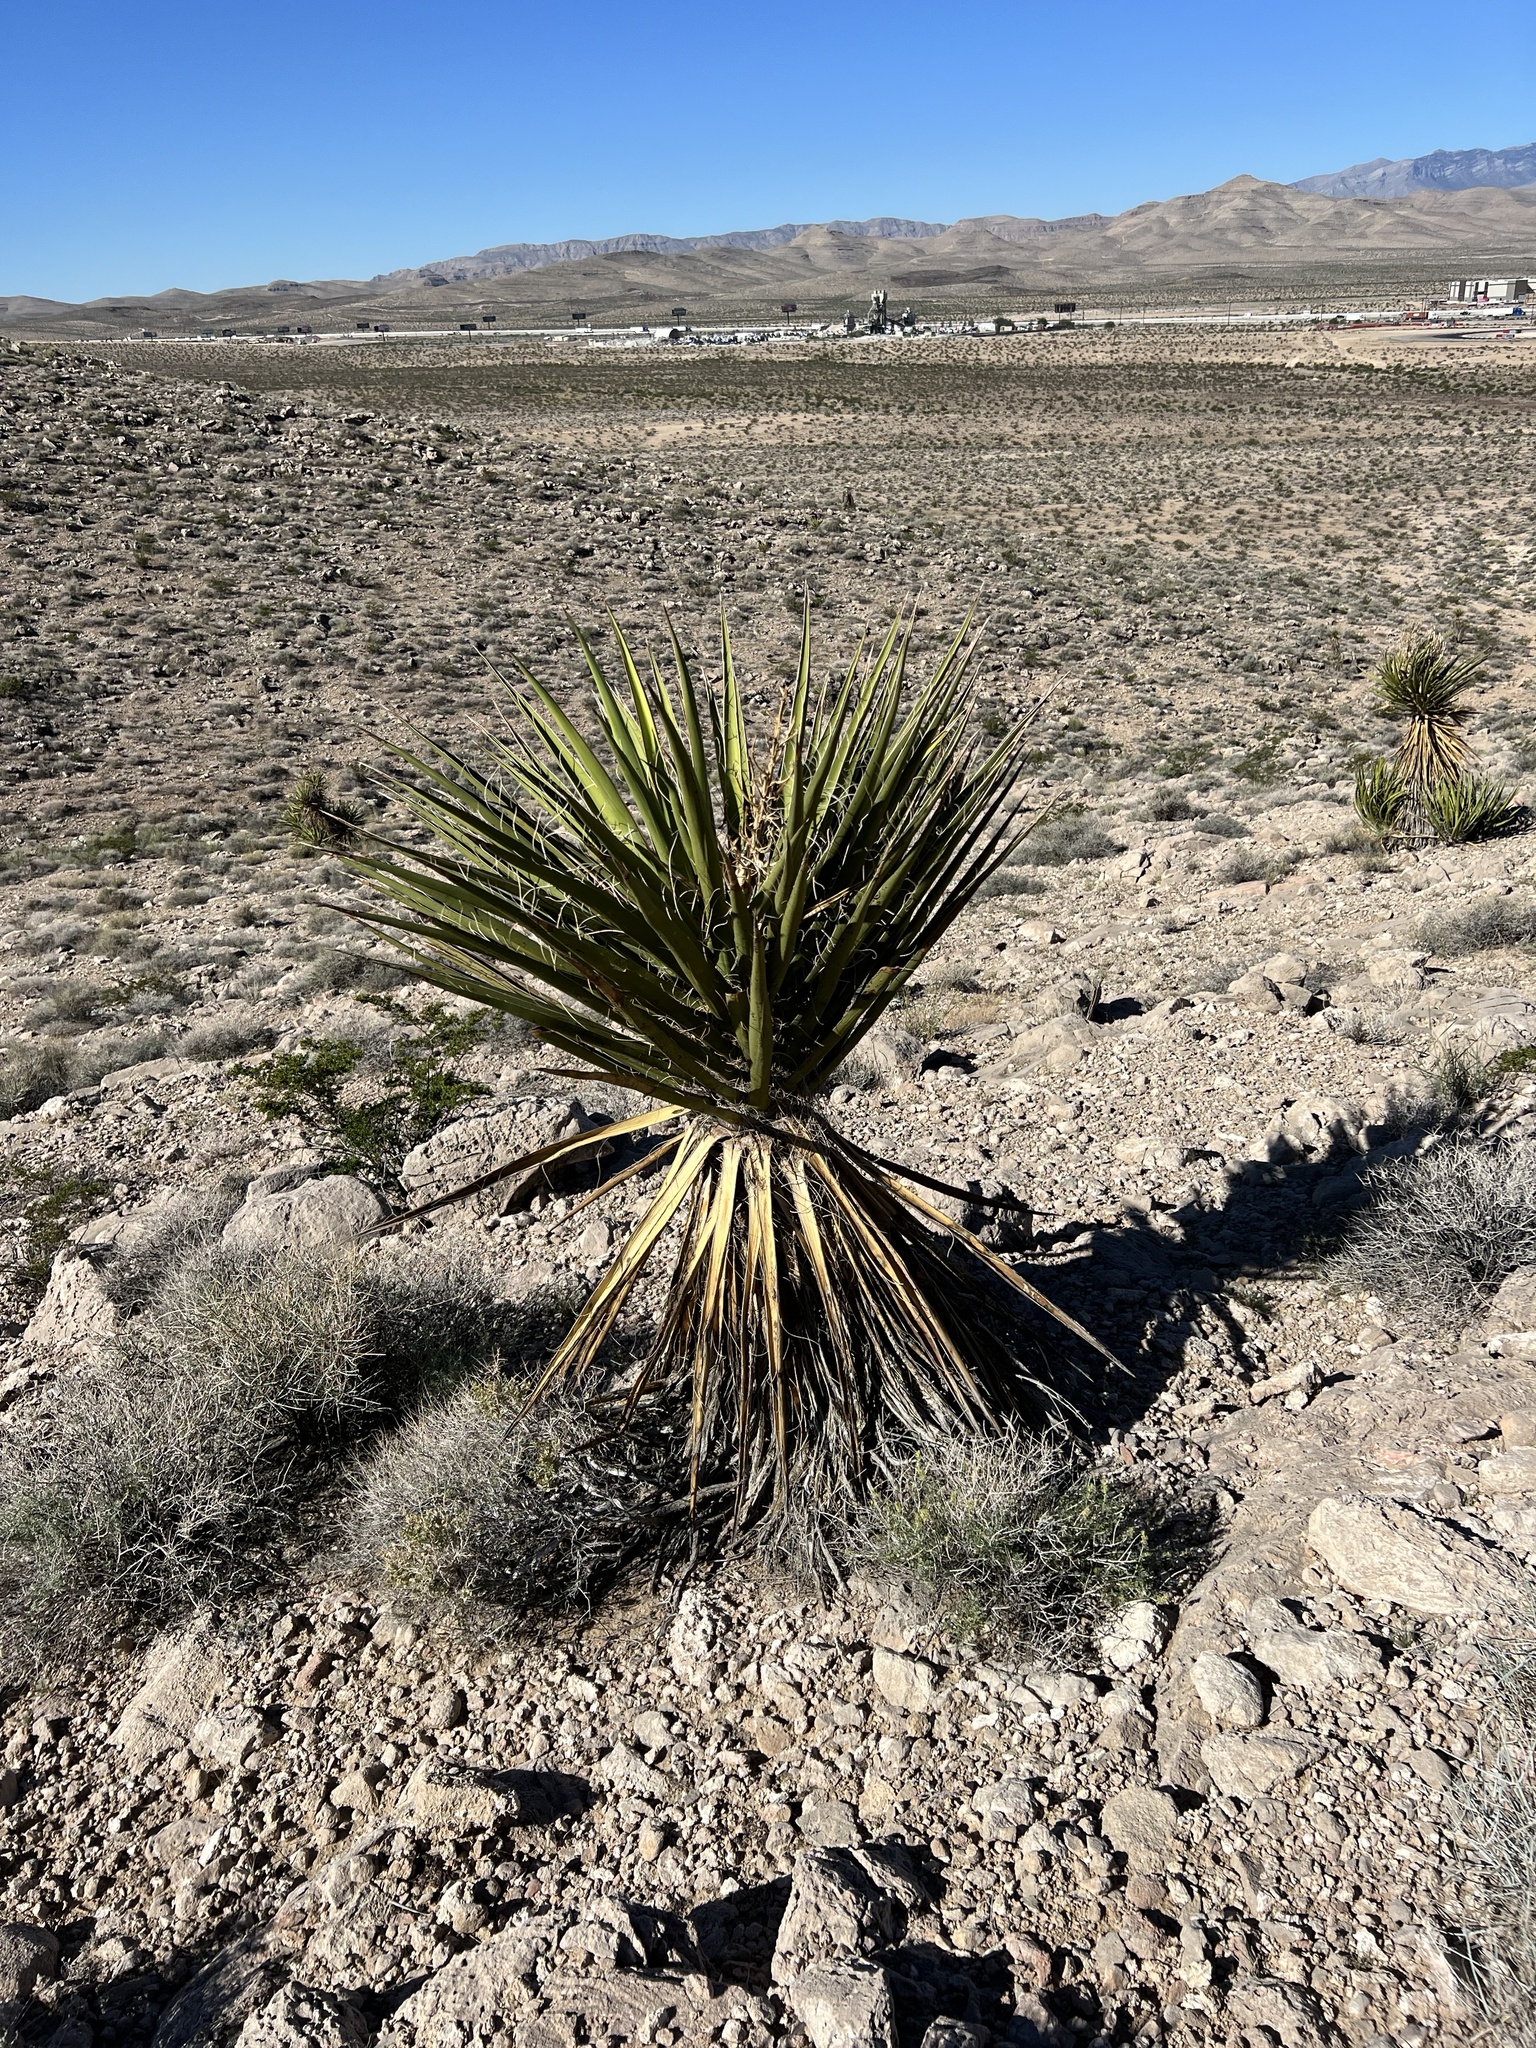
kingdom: Plantae
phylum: Tracheophyta
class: Liliopsida
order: Asparagales
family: Asparagaceae
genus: Yucca
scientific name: Yucca schidigera
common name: Mojave yucca
